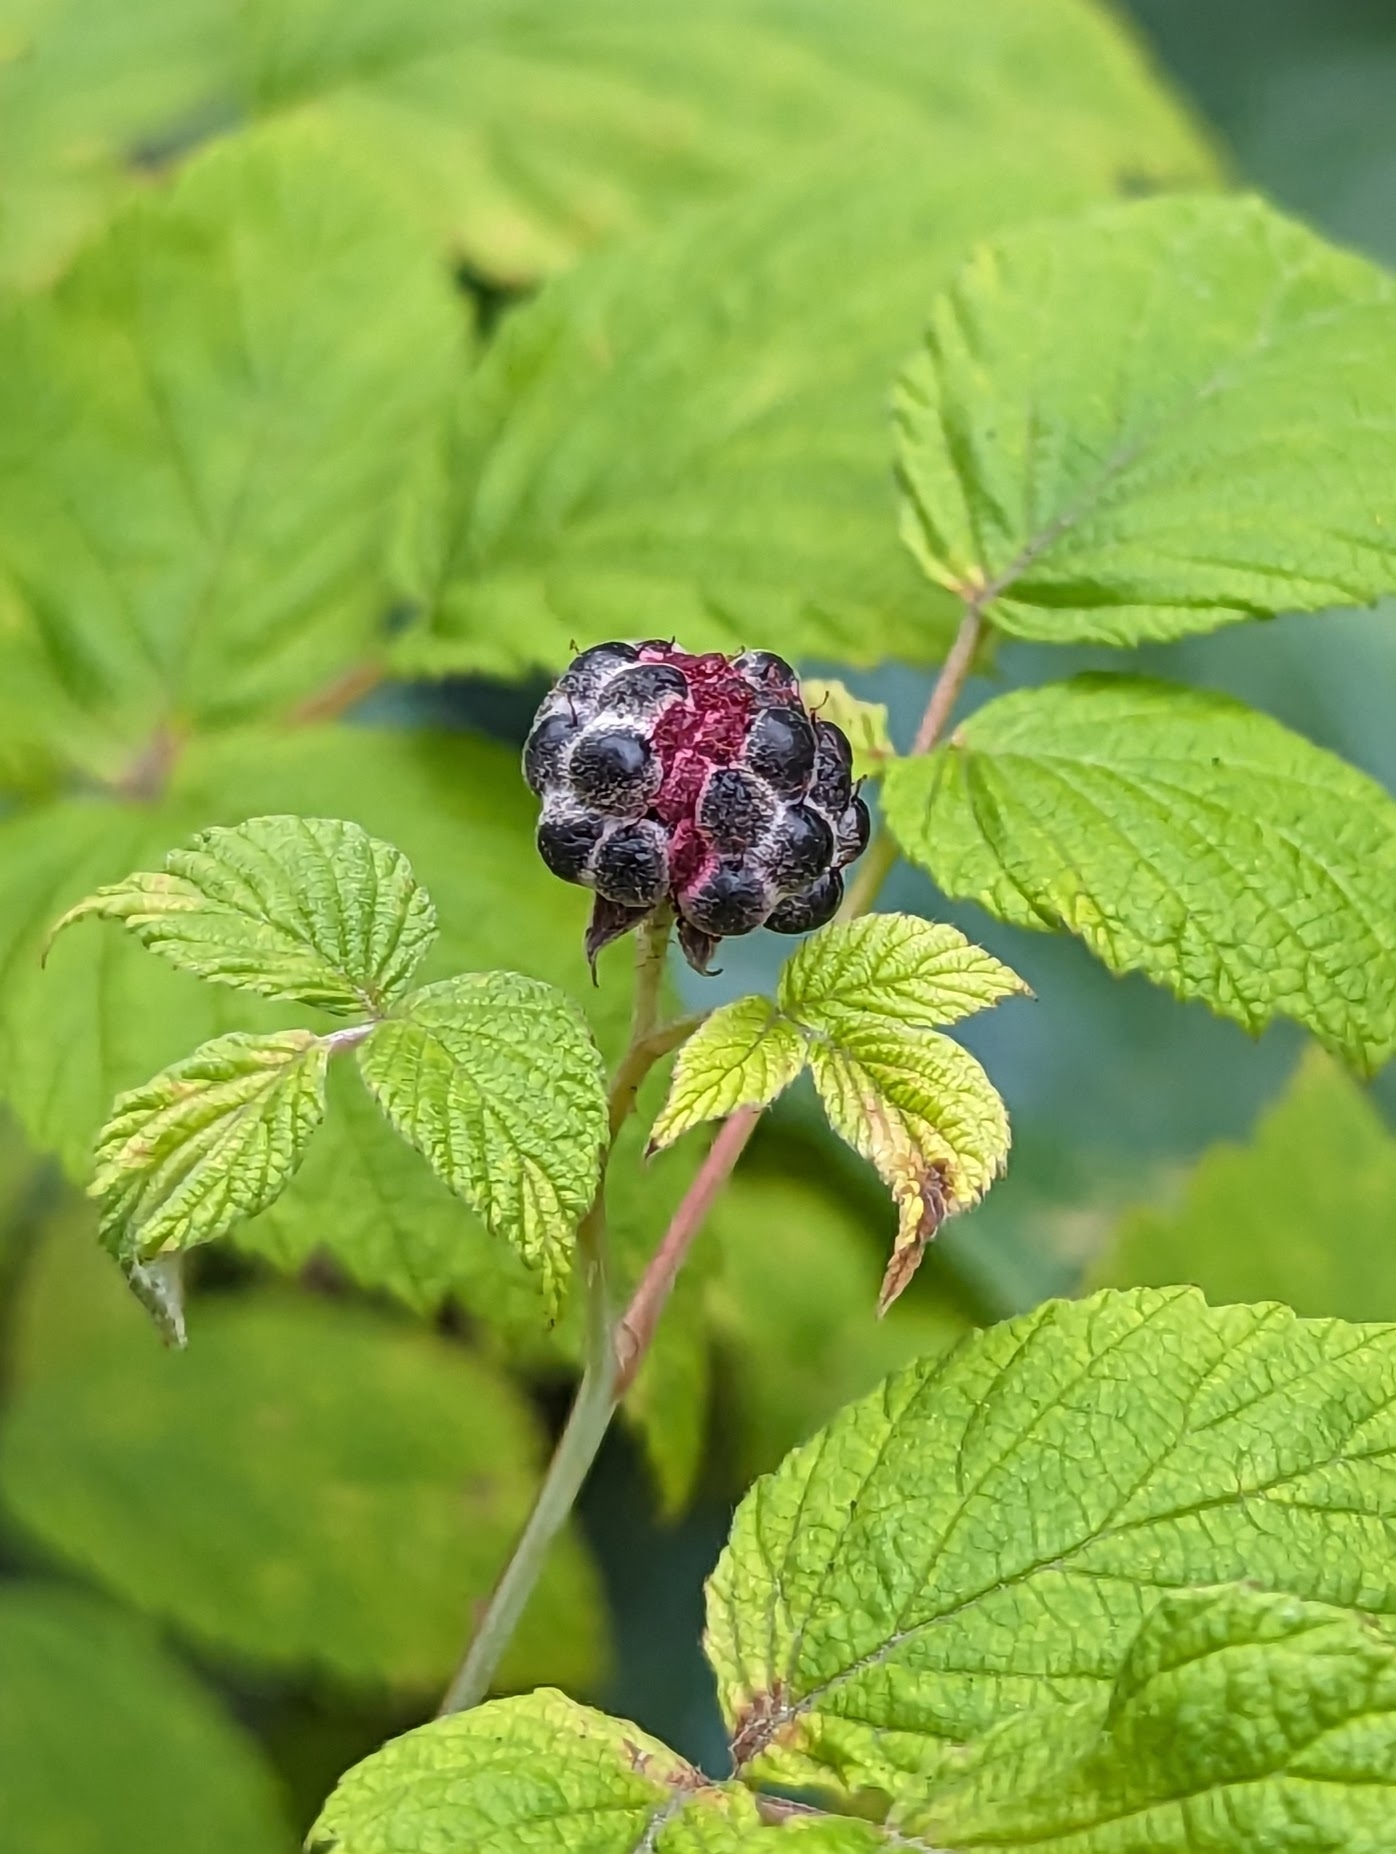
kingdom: Plantae
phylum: Tracheophyta
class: Magnoliopsida
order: Rosales
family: Rosaceae
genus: Rubus
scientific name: Rubus occidentalis
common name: Black raspberry
